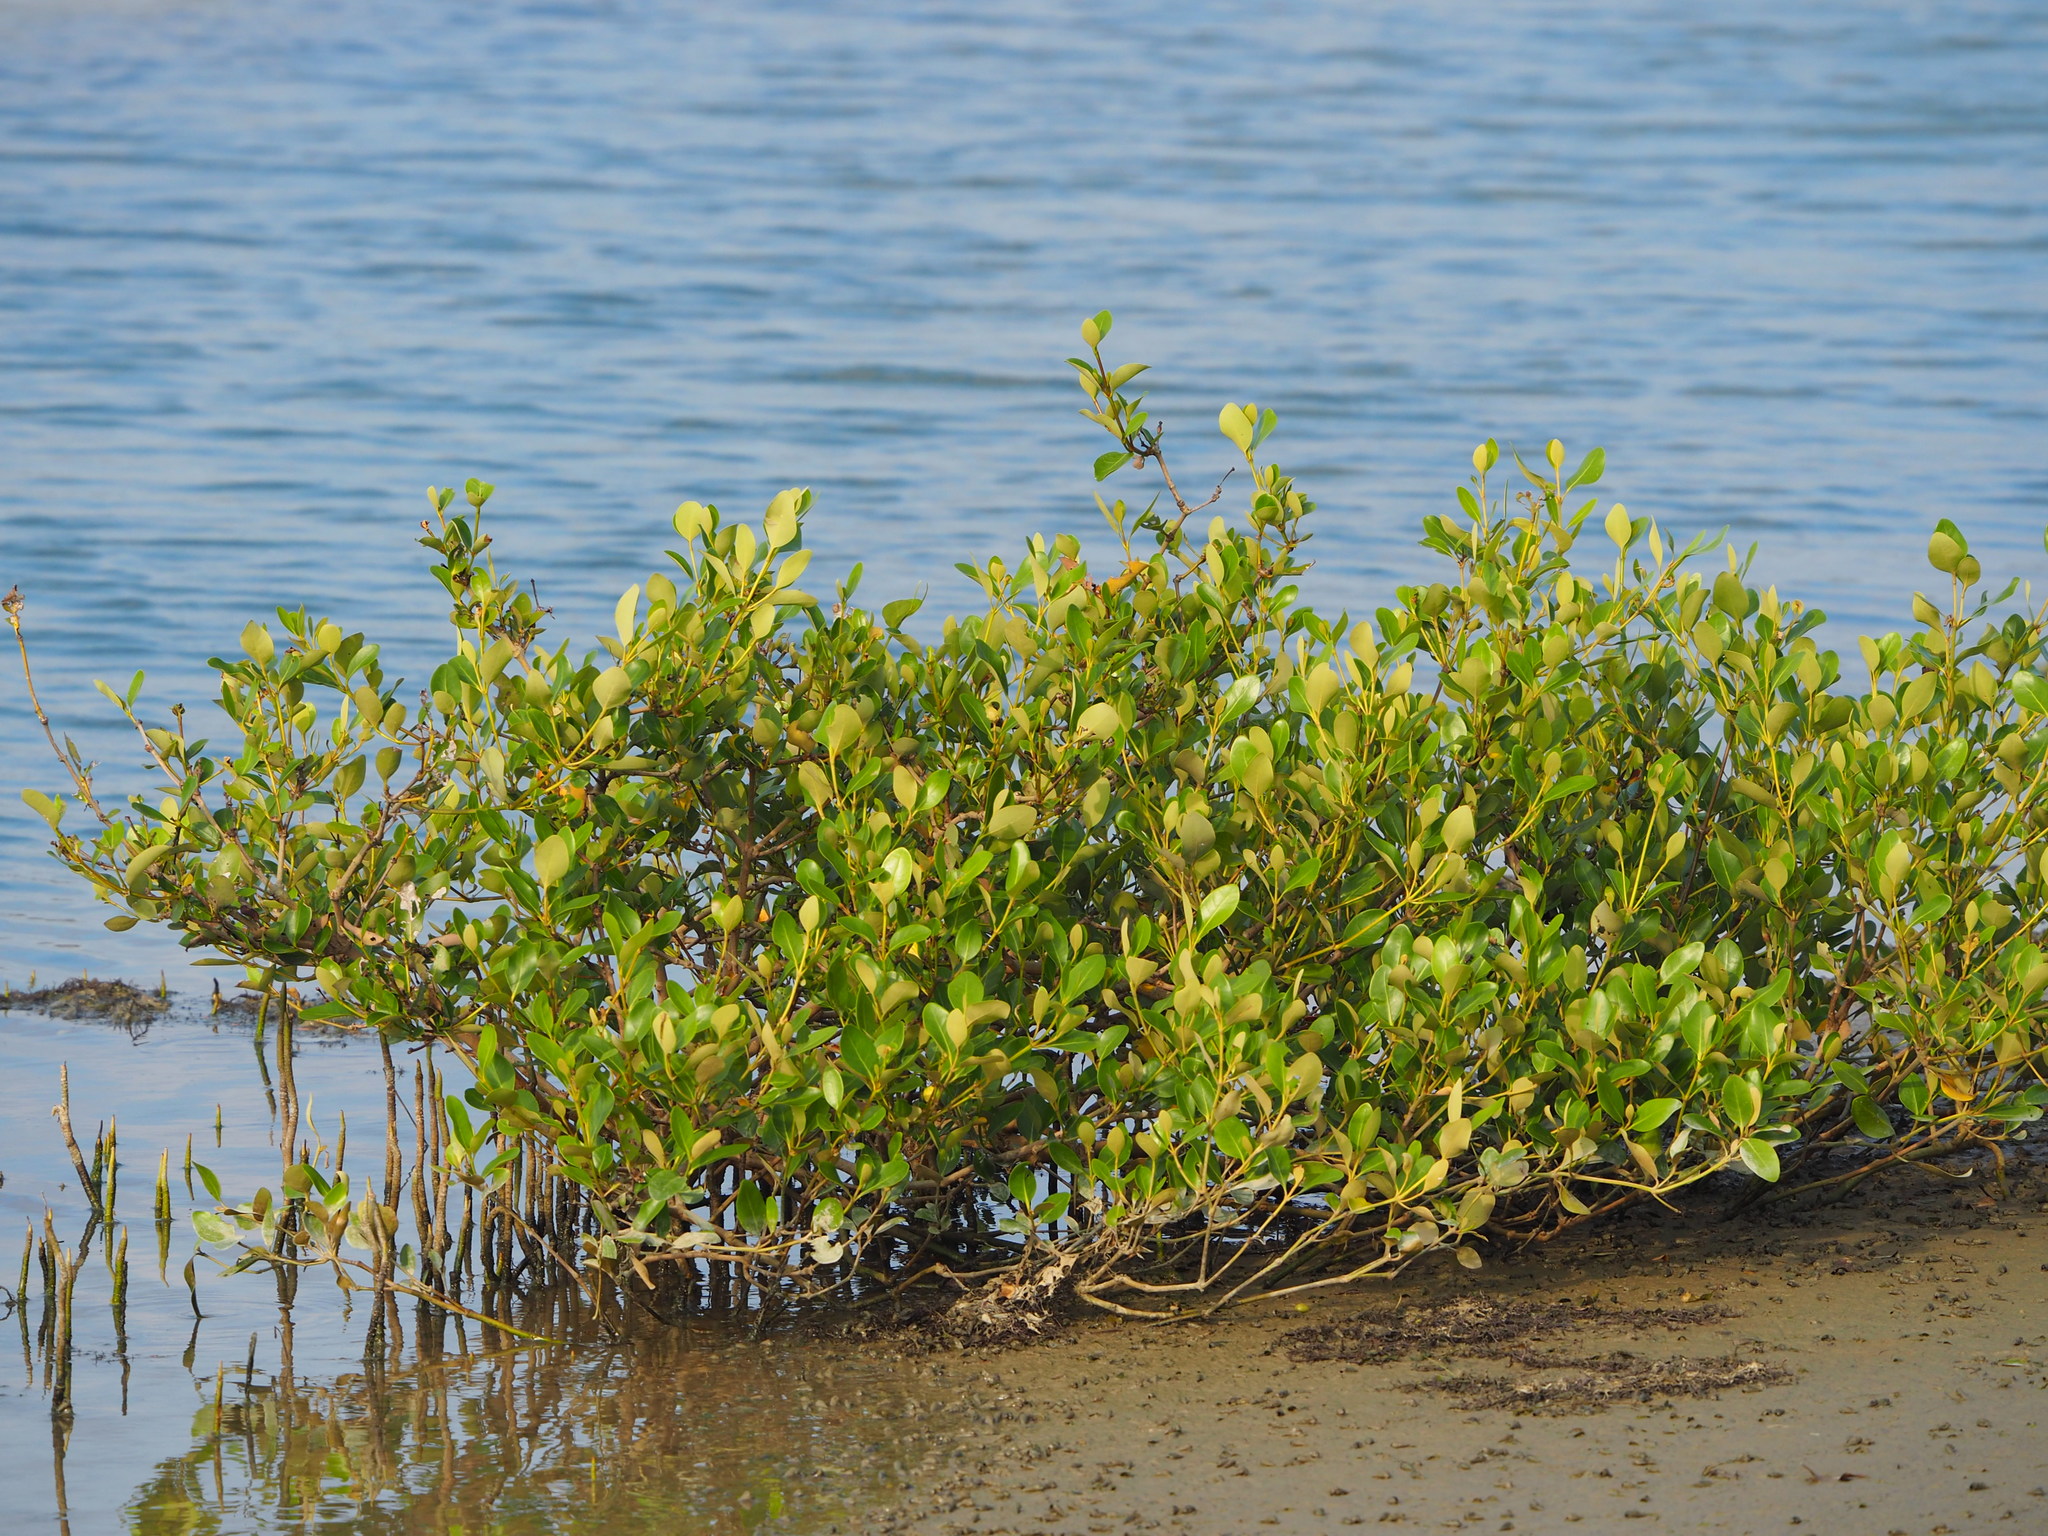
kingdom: Plantae
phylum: Tracheophyta
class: Magnoliopsida
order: Lamiales
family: Acanthaceae
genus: Avicennia
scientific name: Avicennia marina
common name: Gray mangrove
